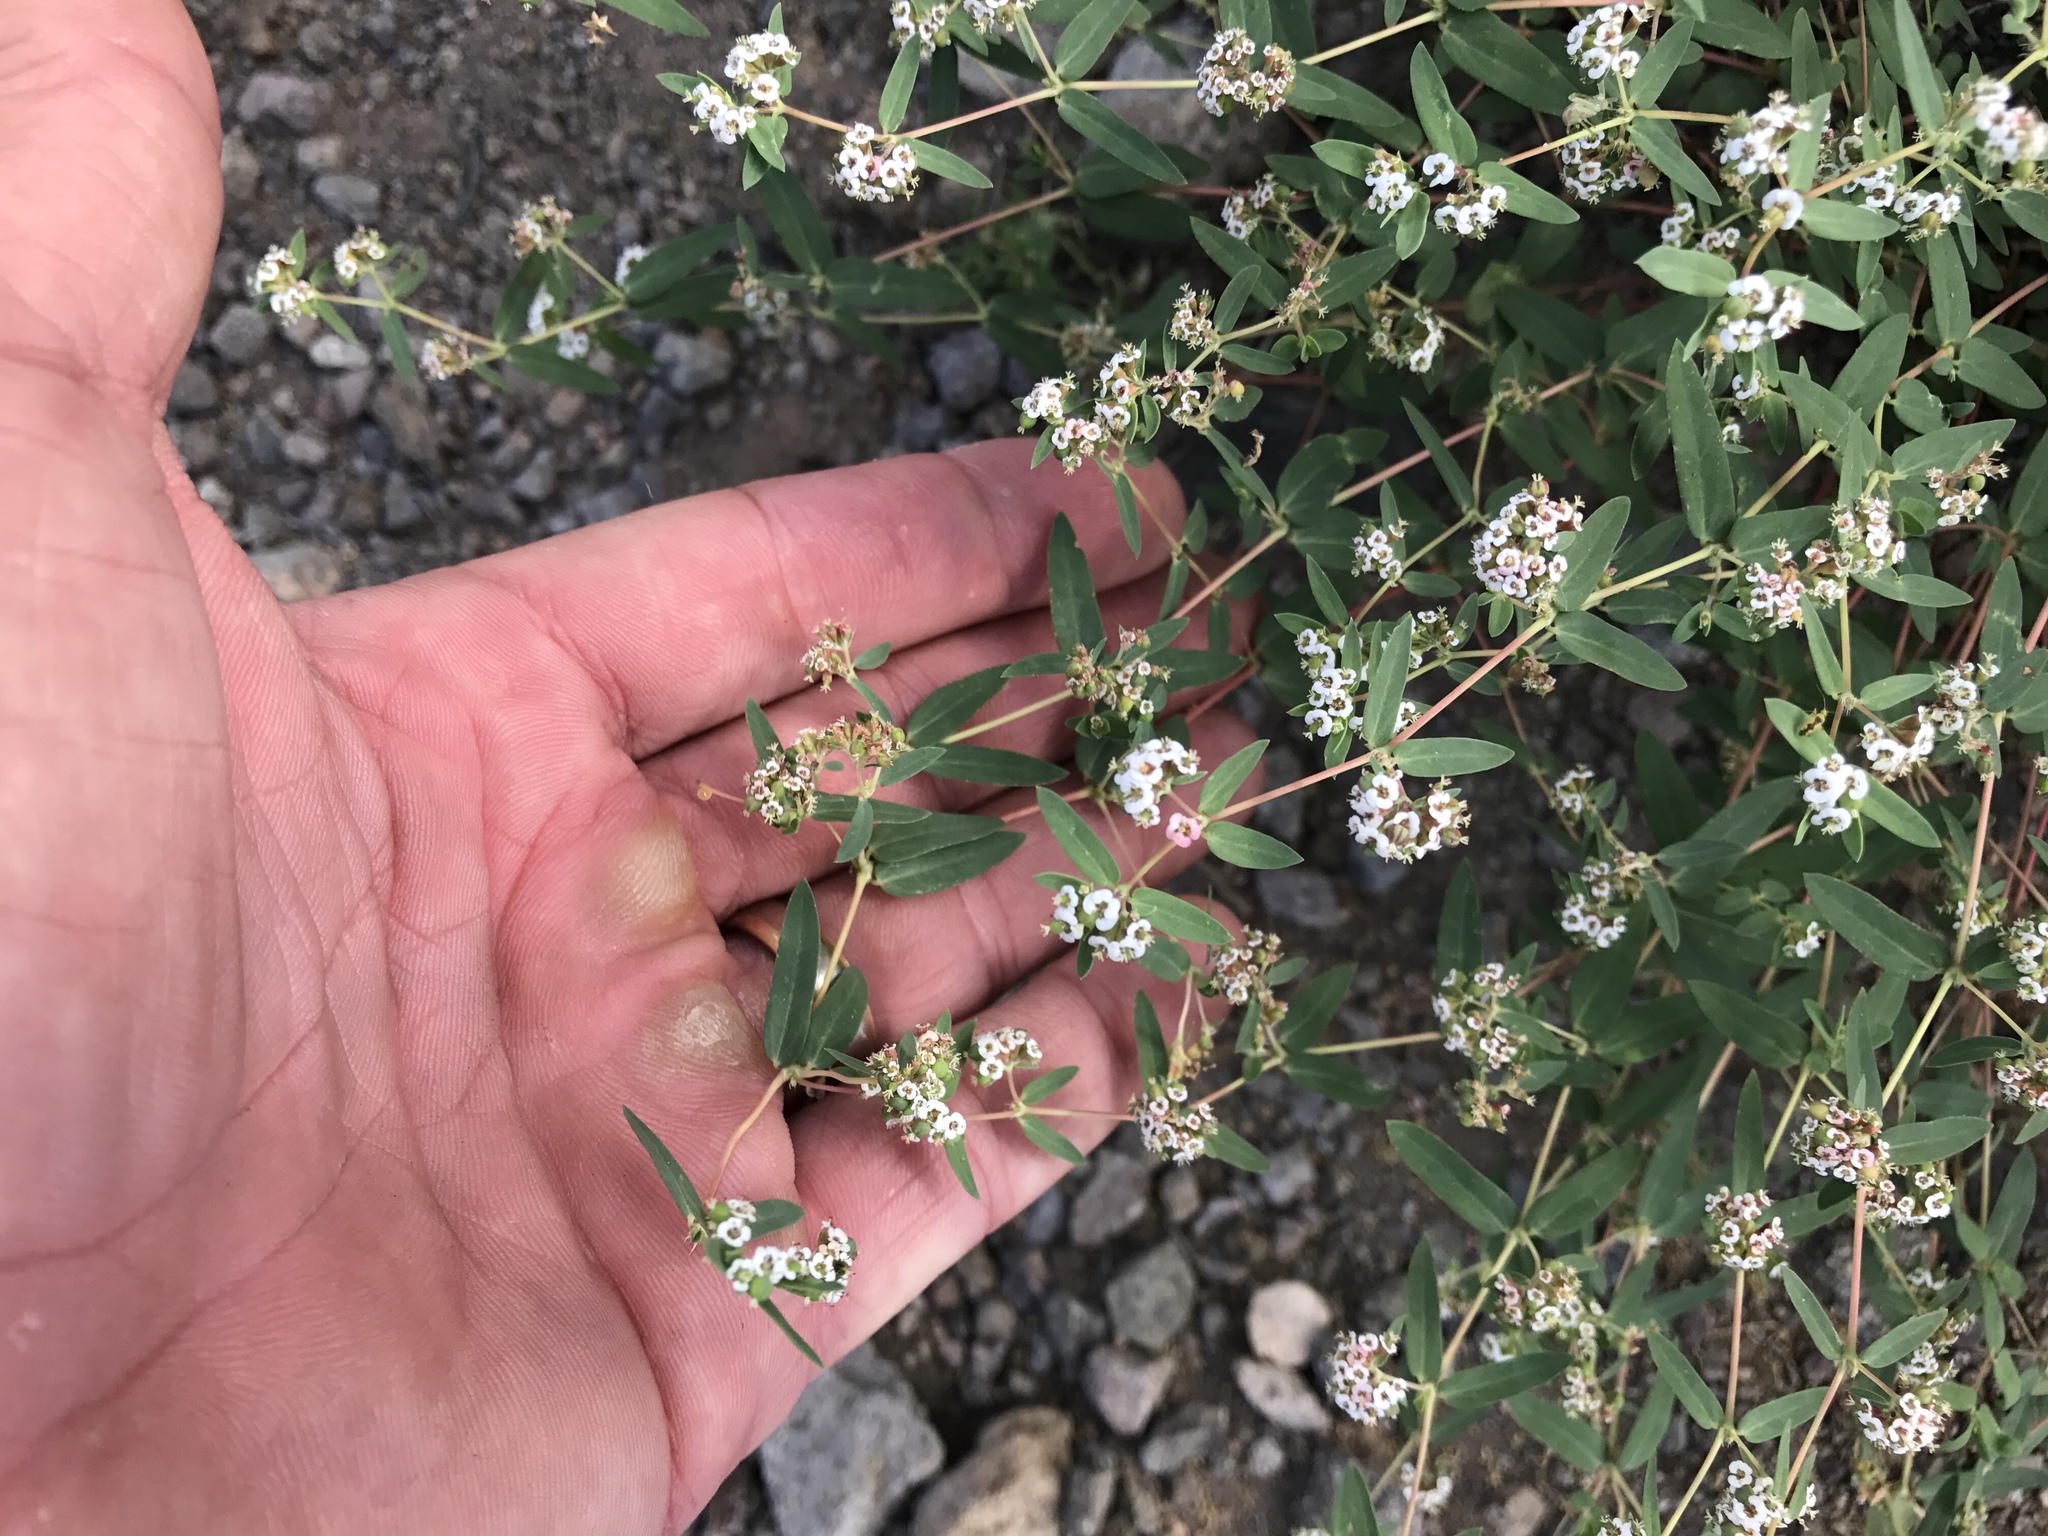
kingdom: Plantae
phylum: Tracheophyta
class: Magnoliopsida
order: Malpighiales
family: Euphorbiaceae
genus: Euphorbia
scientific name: Euphorbia capitellata
